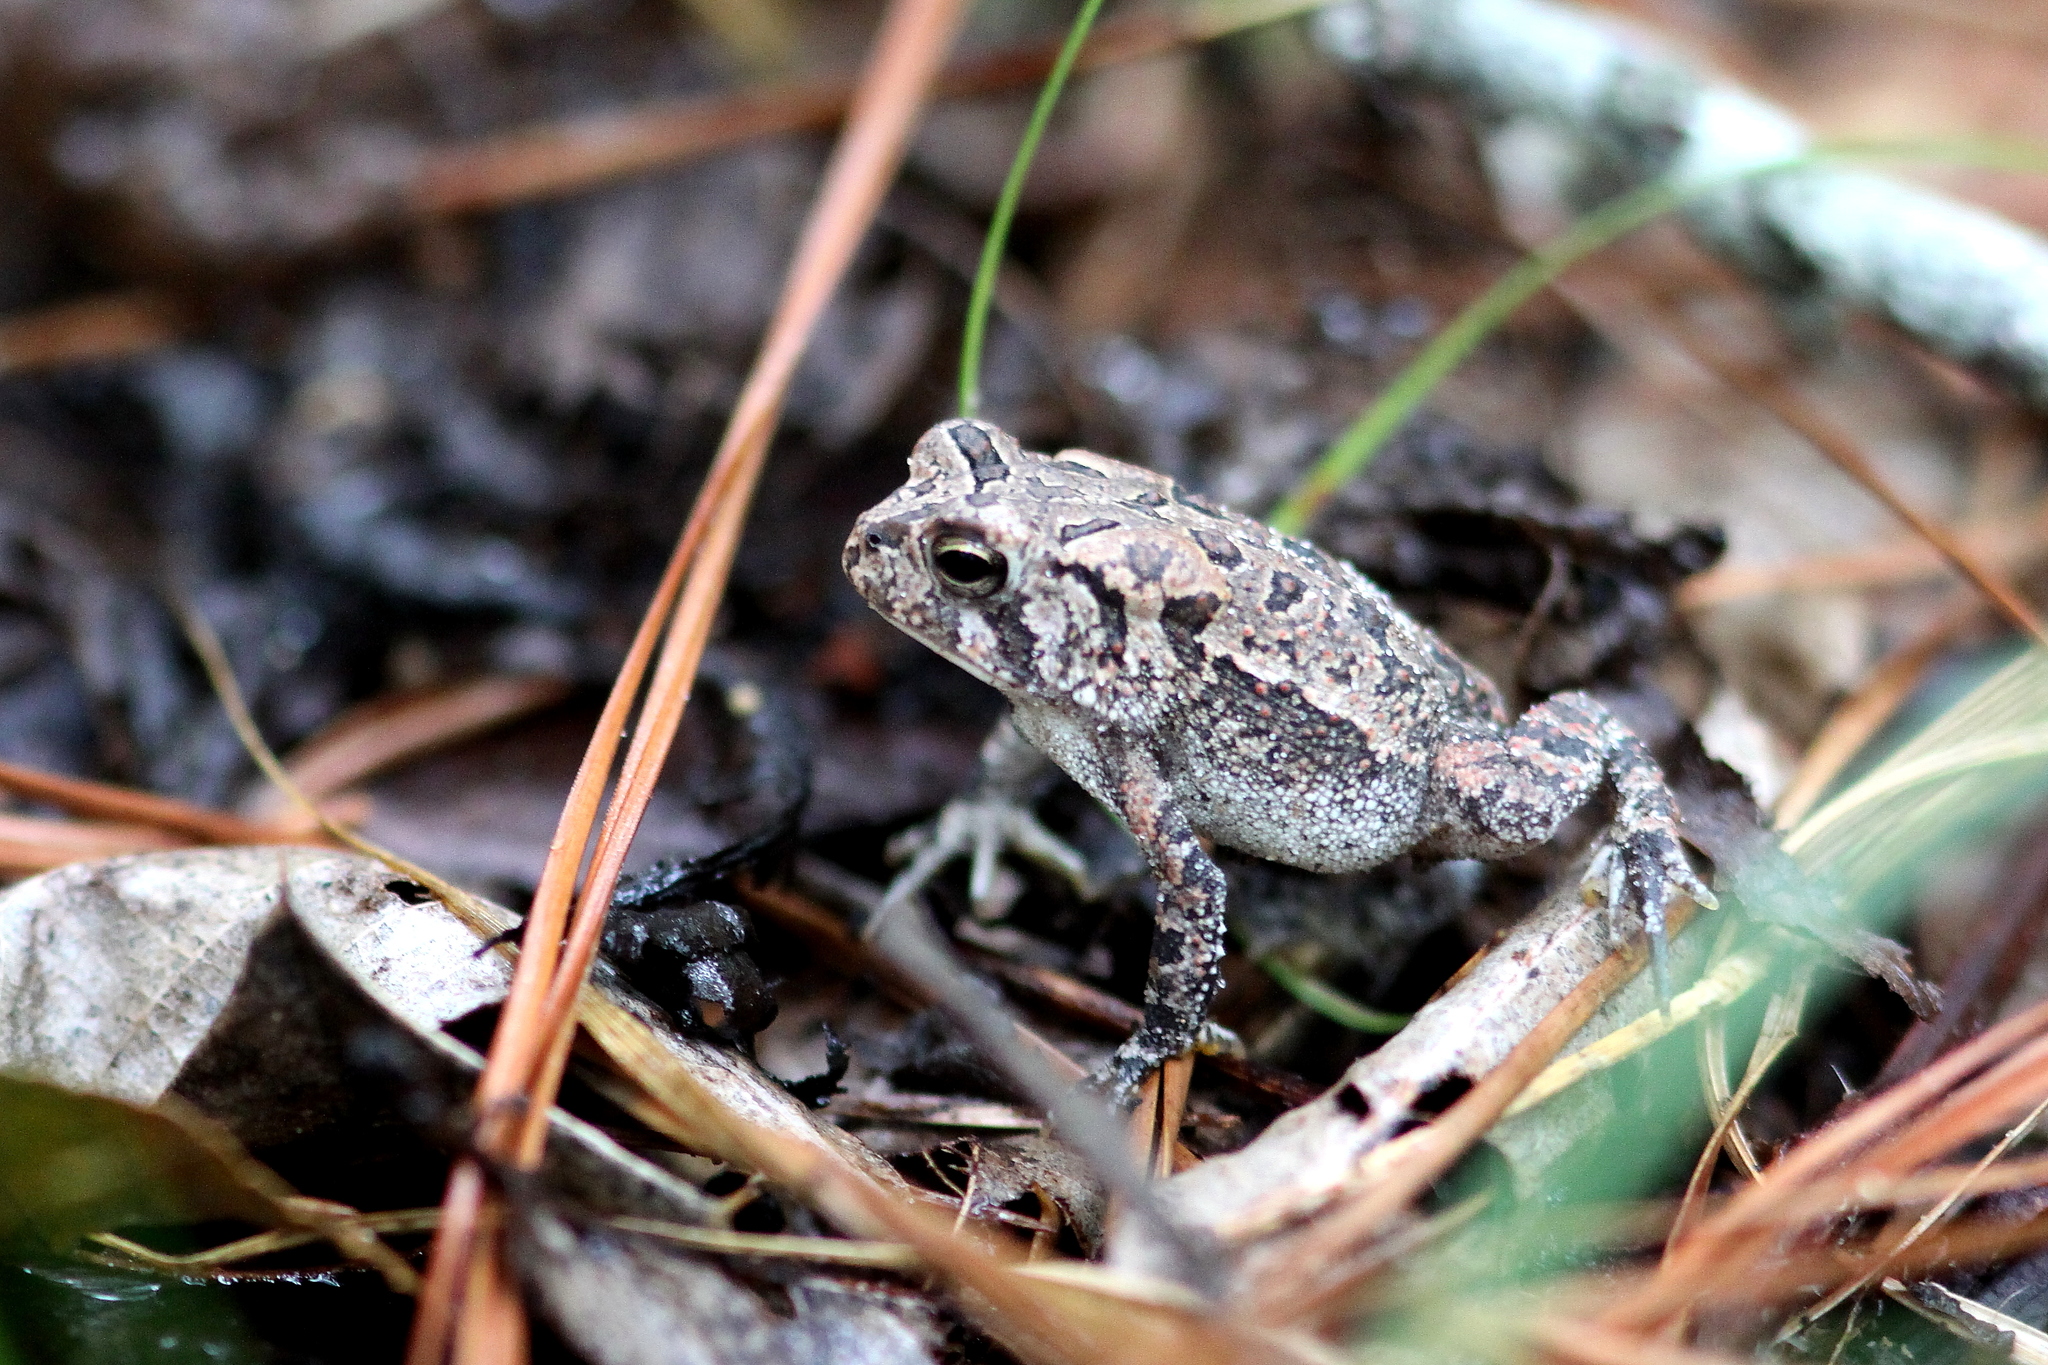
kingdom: Animalia
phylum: Chordata
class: Amphibia
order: Anura
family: Bufonidae
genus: Anaxyrus
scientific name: Anaxyrus terrestris
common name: Southern toad
